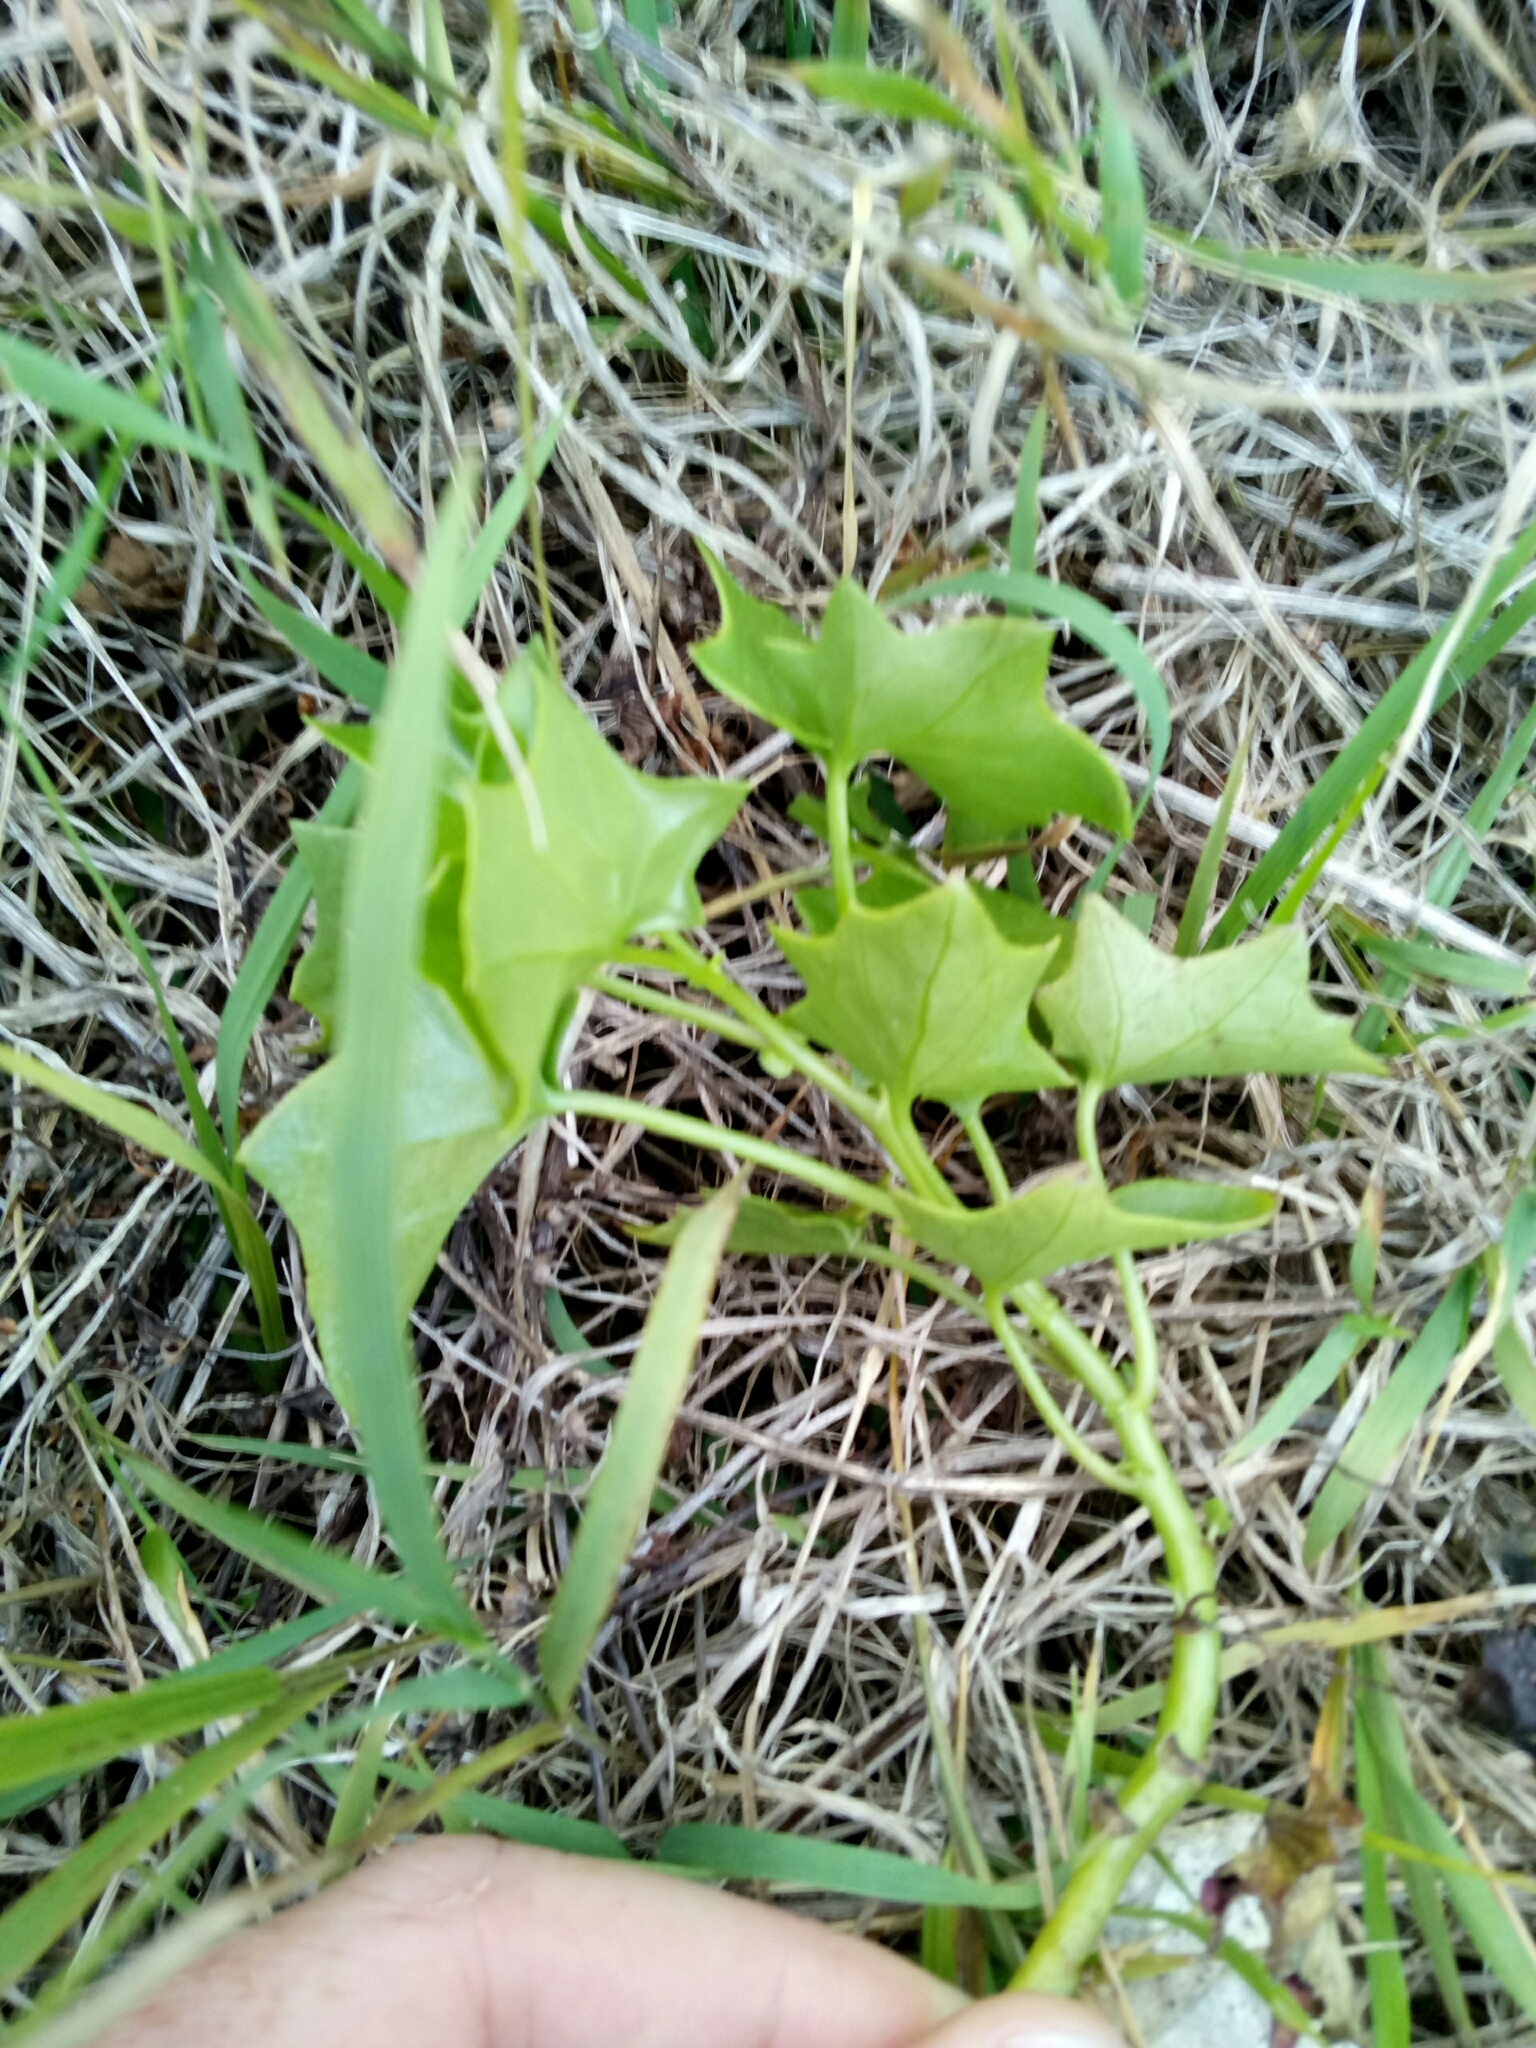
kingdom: Plantae
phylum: Tracheophyta
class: Magnoliopsida
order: Asterales
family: Asteraceae
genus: Delairea
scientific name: Delairea odorata
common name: Cape-ivy
